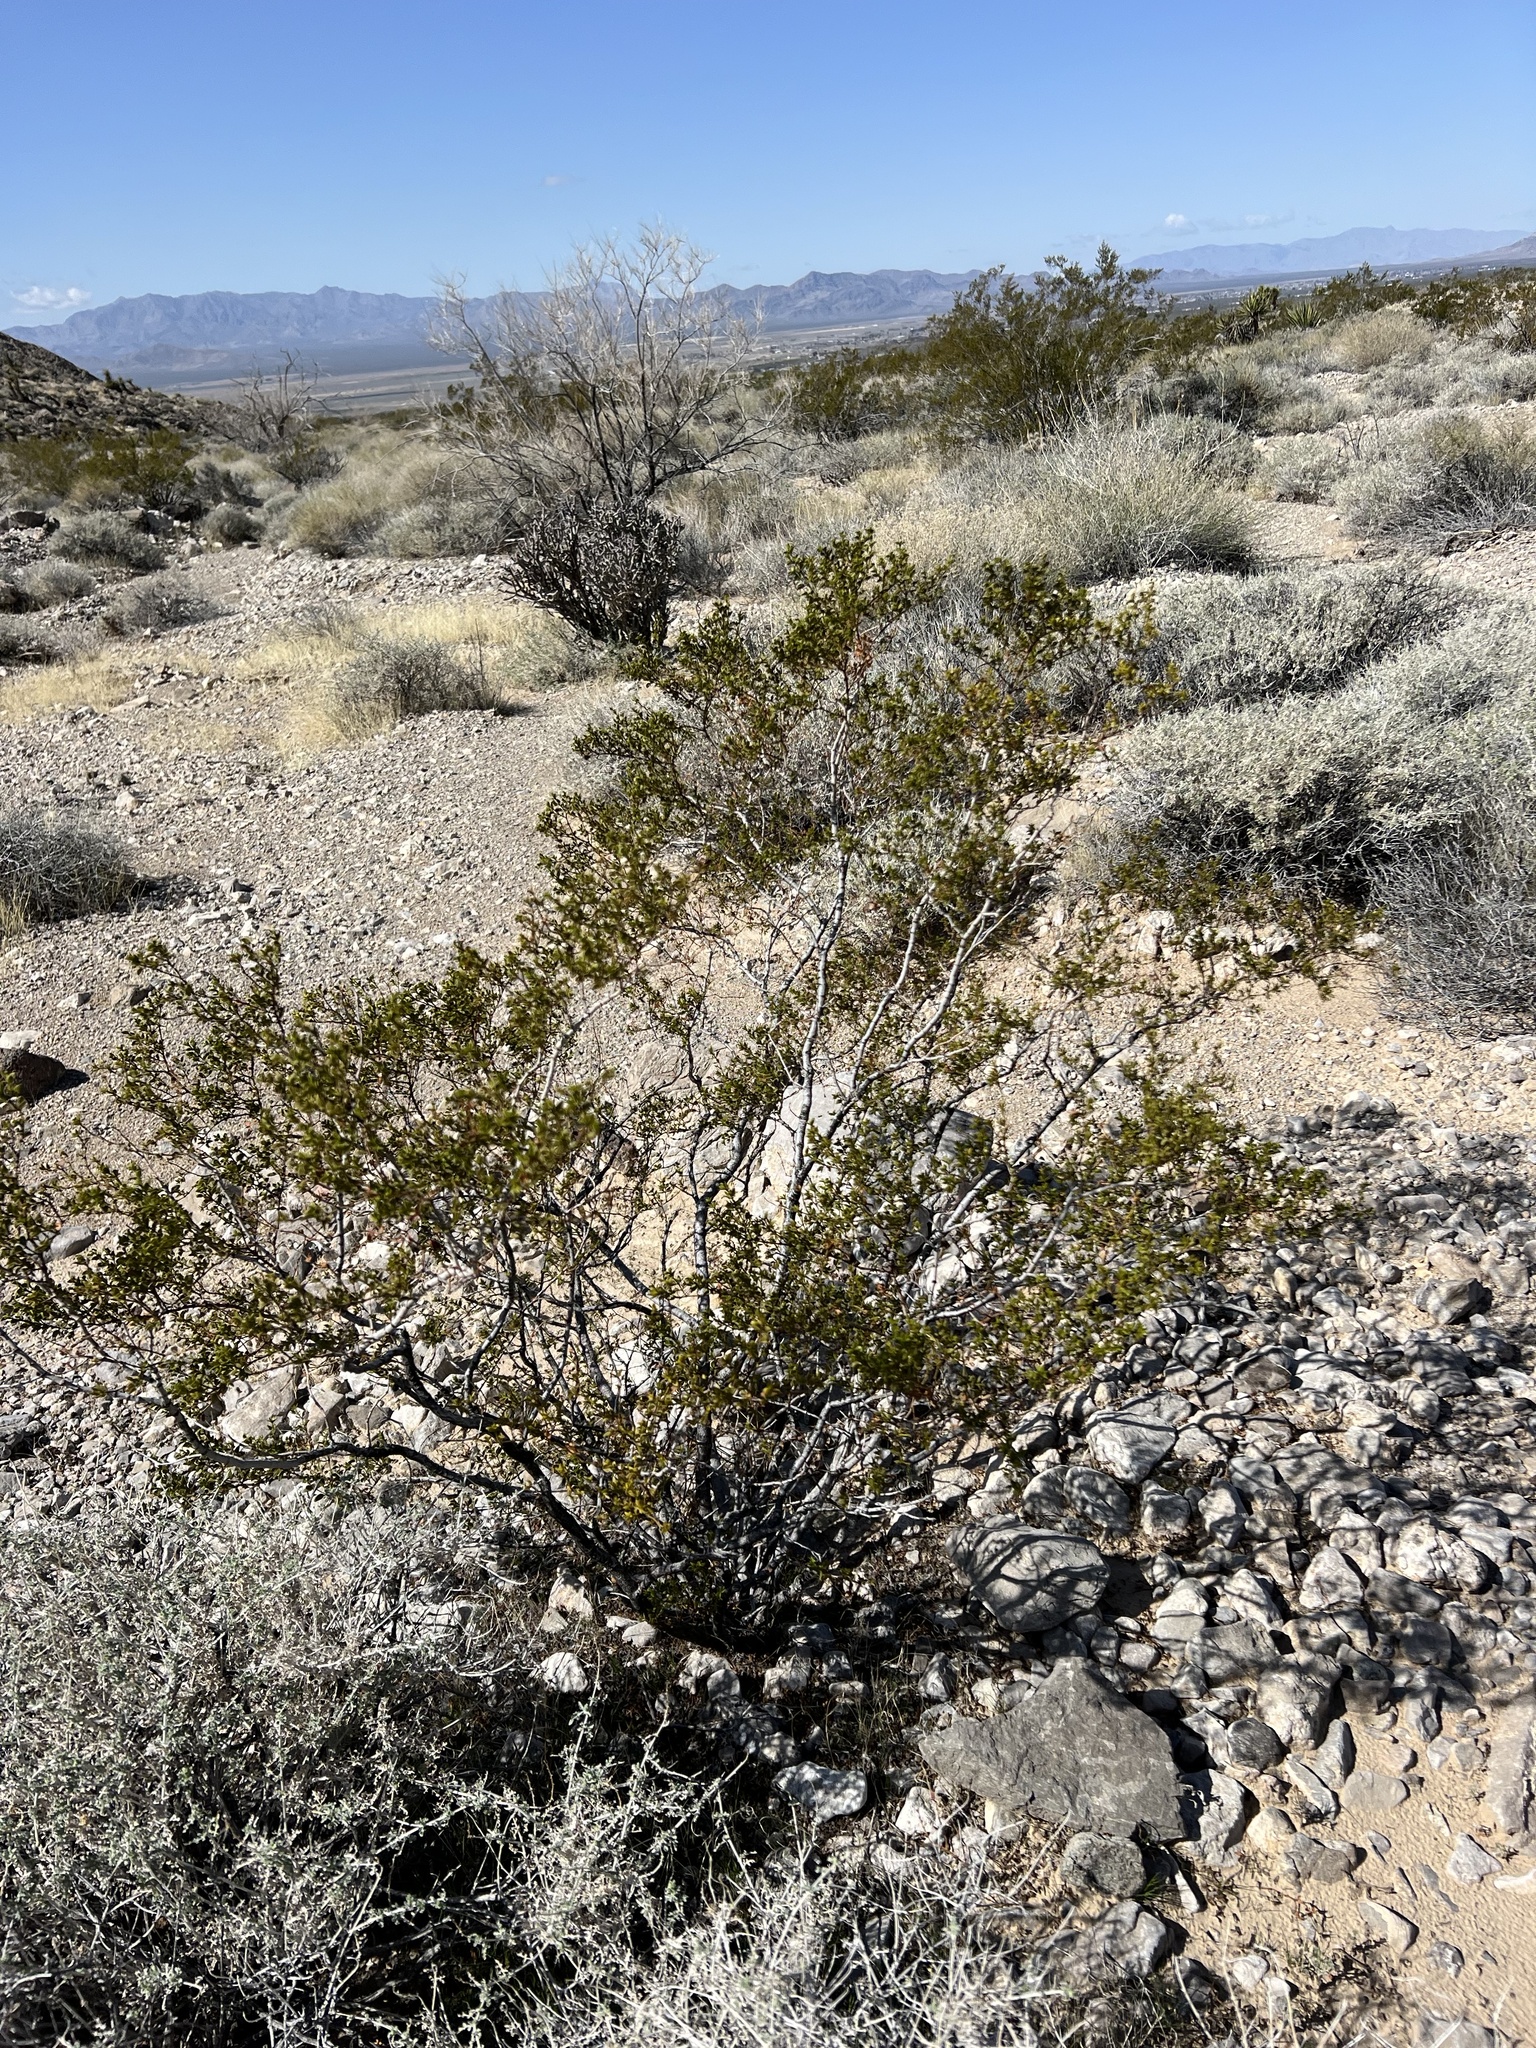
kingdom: Plantae
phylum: Tracheophyta
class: Magnoliopsida
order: Zygophyllales
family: Zygophyllaceae
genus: Larrea
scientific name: Larrea tridentata
